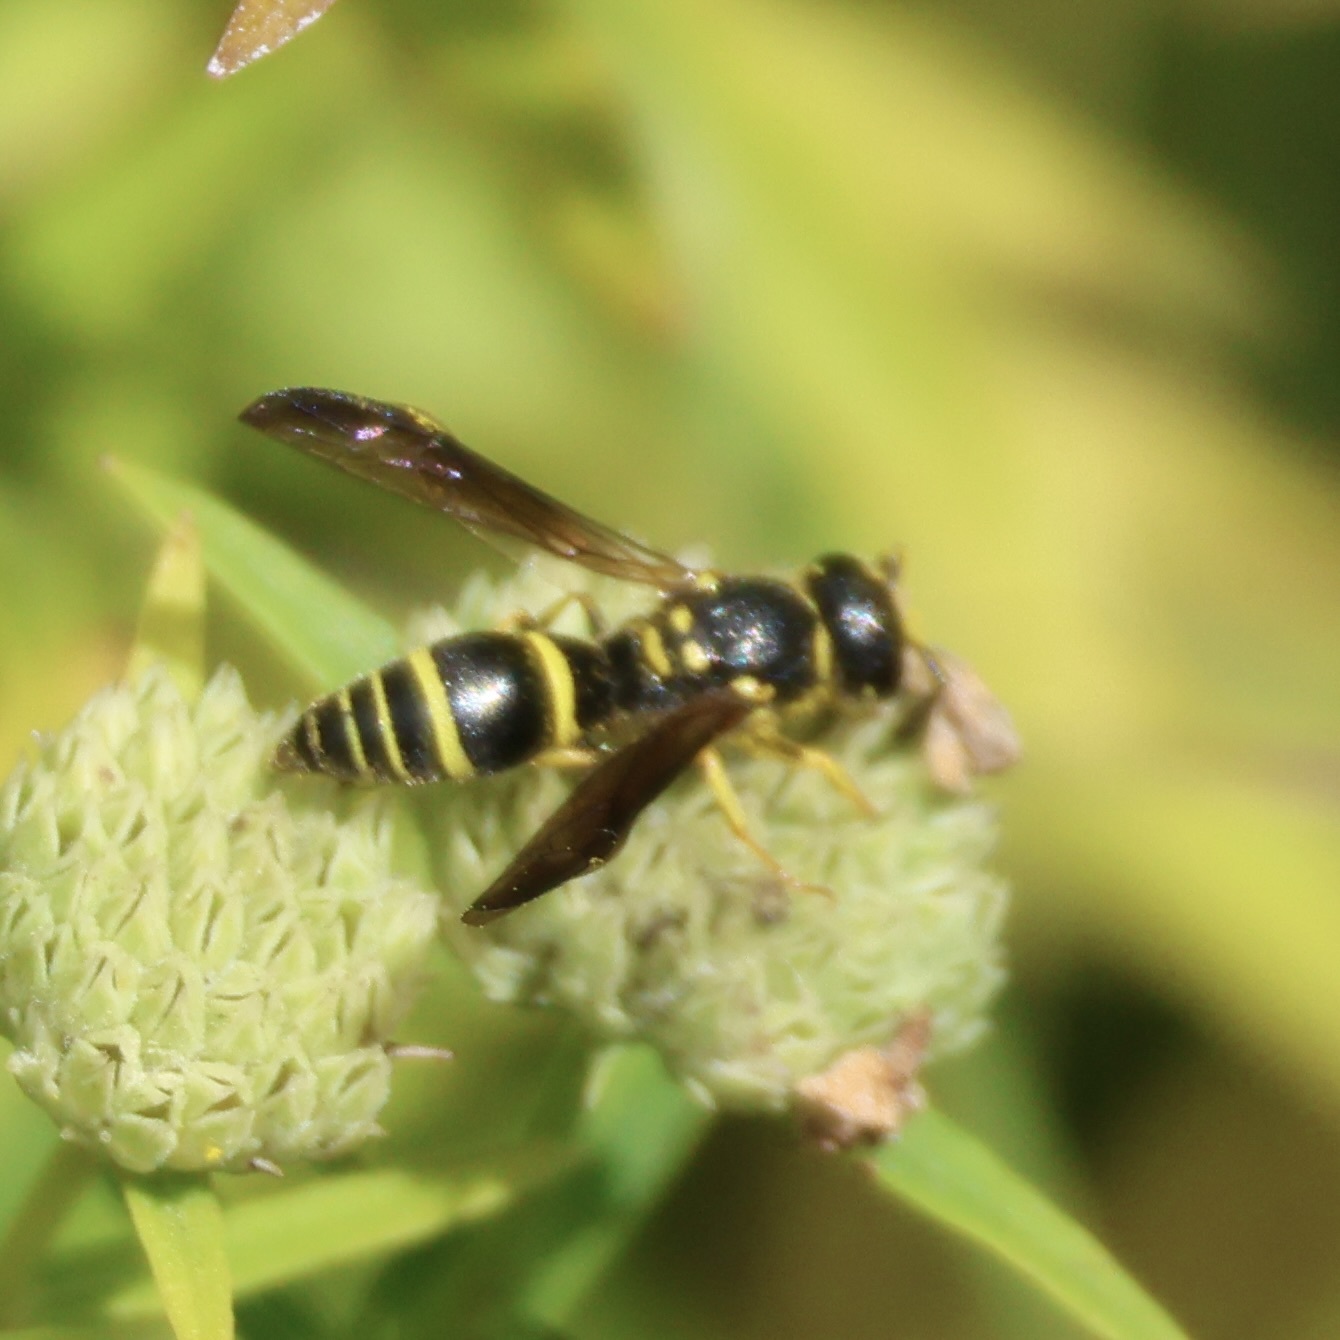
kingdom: Animalia
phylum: Arthropoda
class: Insecta
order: Hymenoptera
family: Vespidae
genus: Ancistrocerus
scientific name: Ancistrocerus adiabatus
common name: Bramble mason wasp
